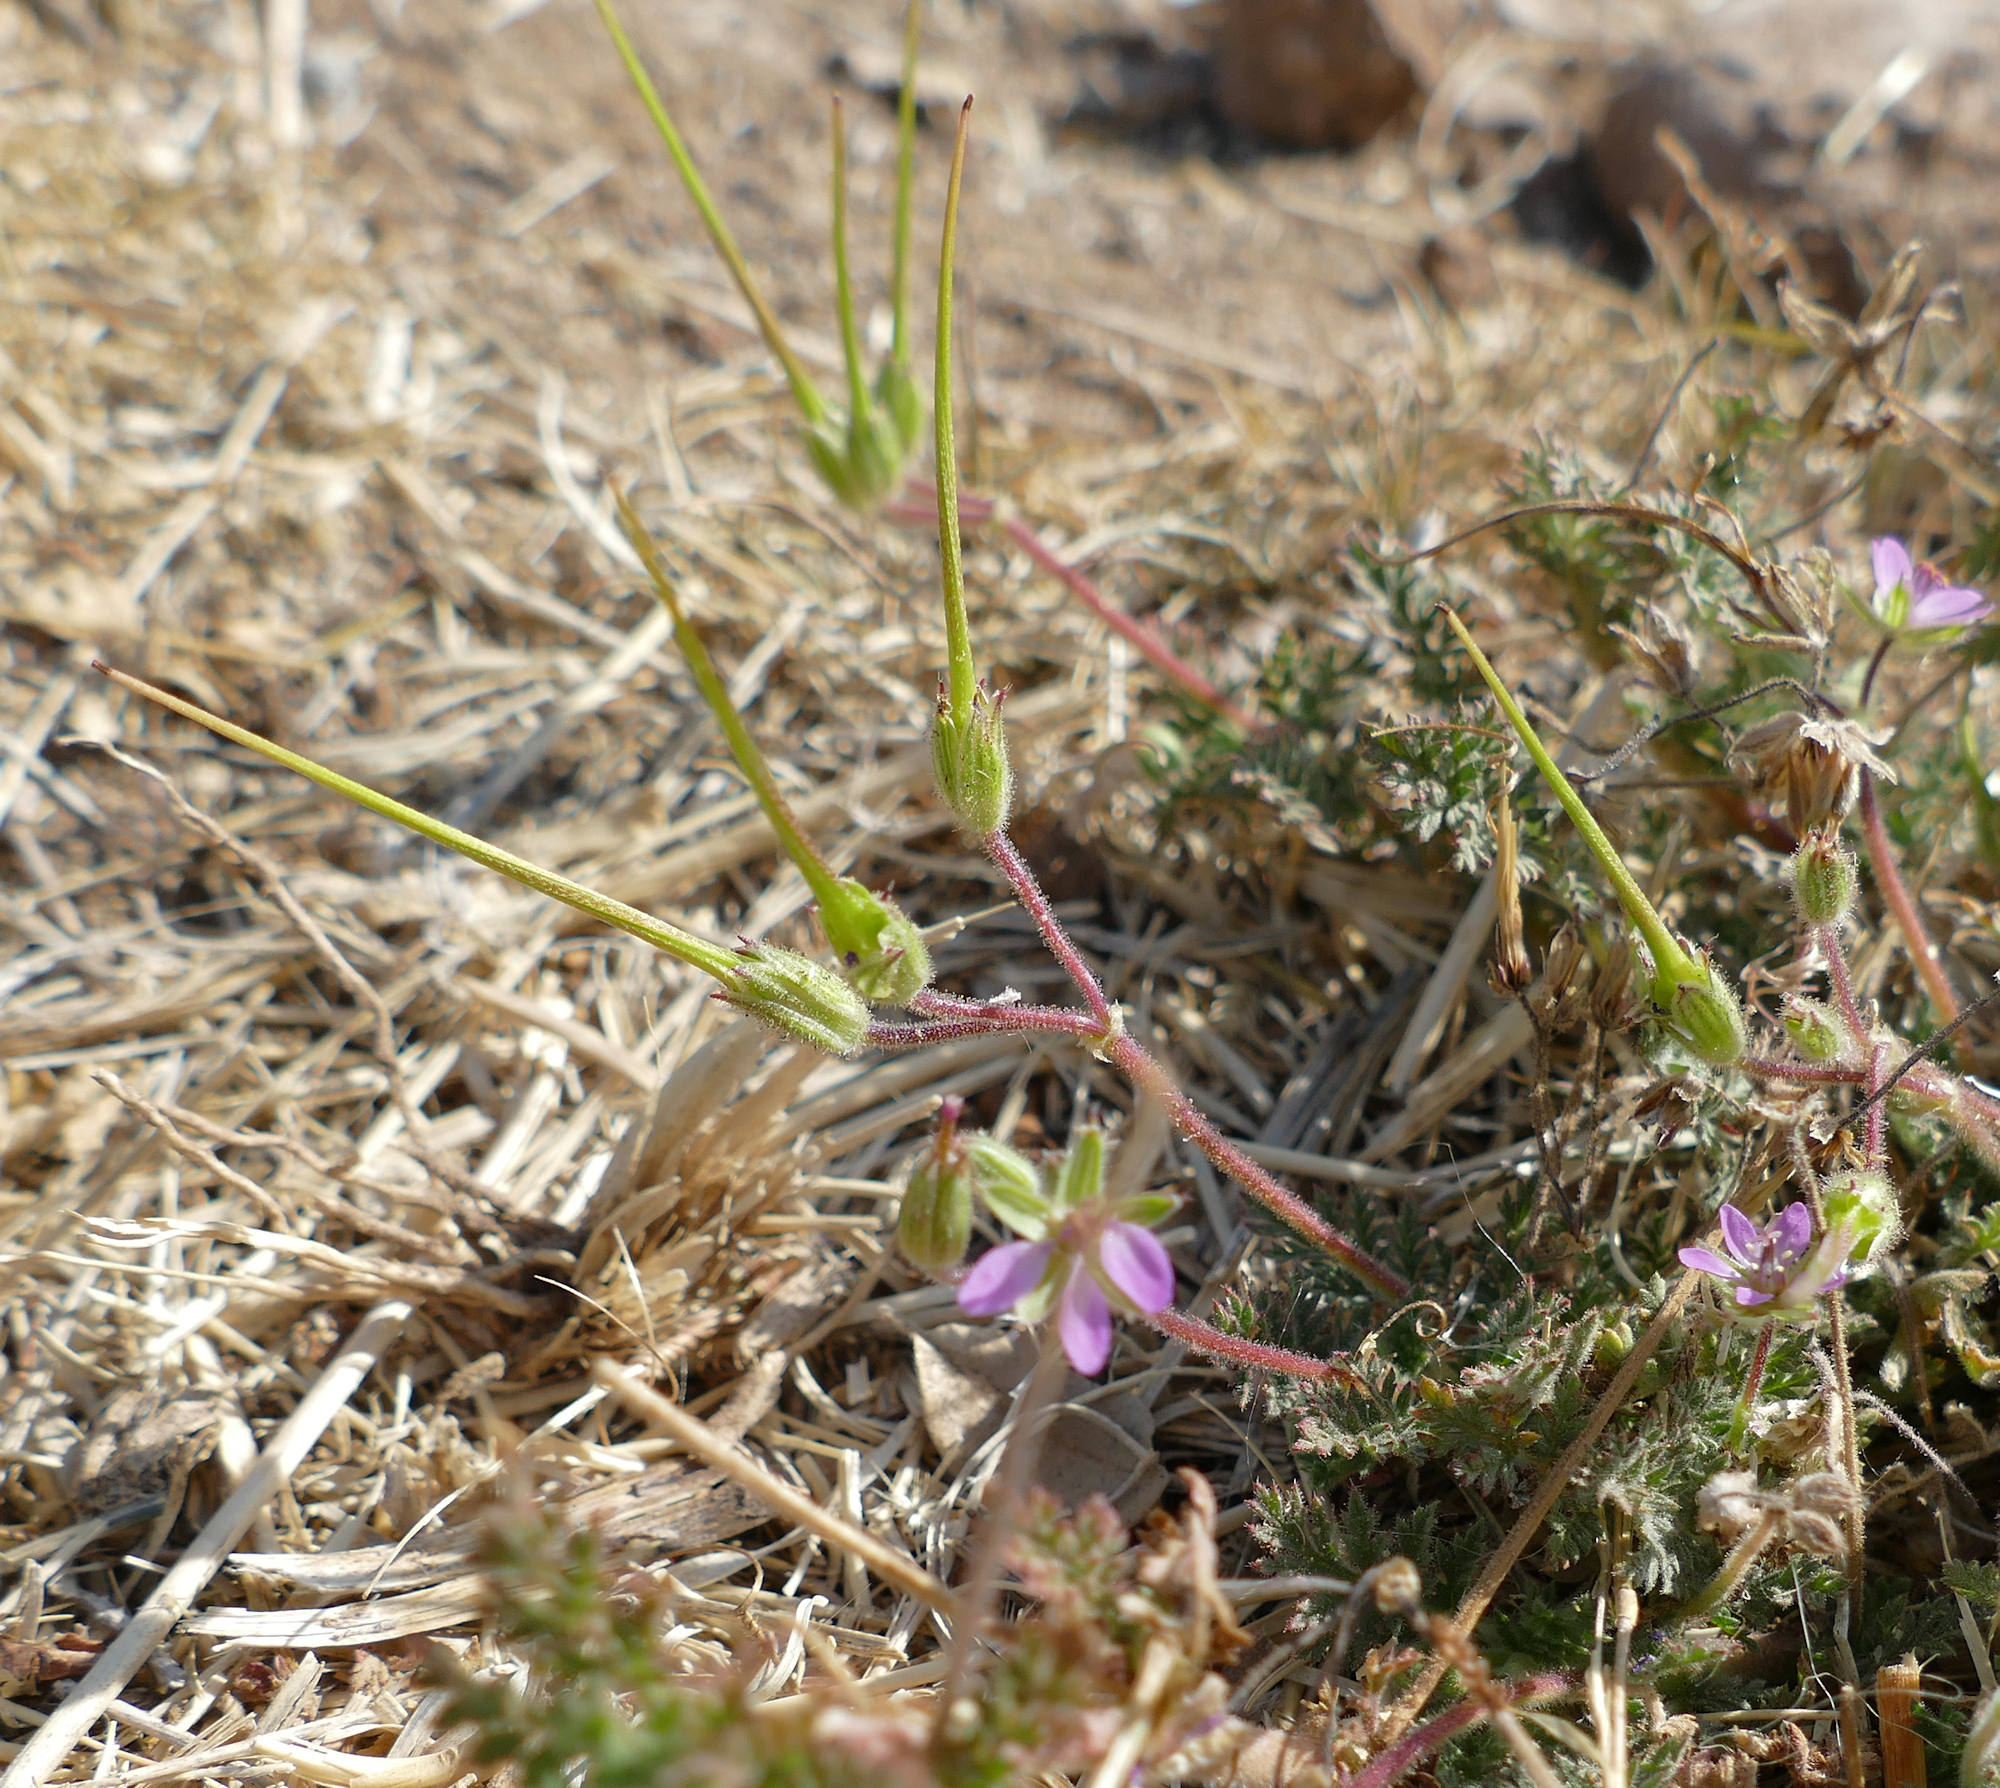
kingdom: Plantae
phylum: Tracheophyta
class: Magnoliopsida
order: Geraniales
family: Geraniaceae
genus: Erodium
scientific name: Erodium cicutarium
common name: Common stork's-bill
